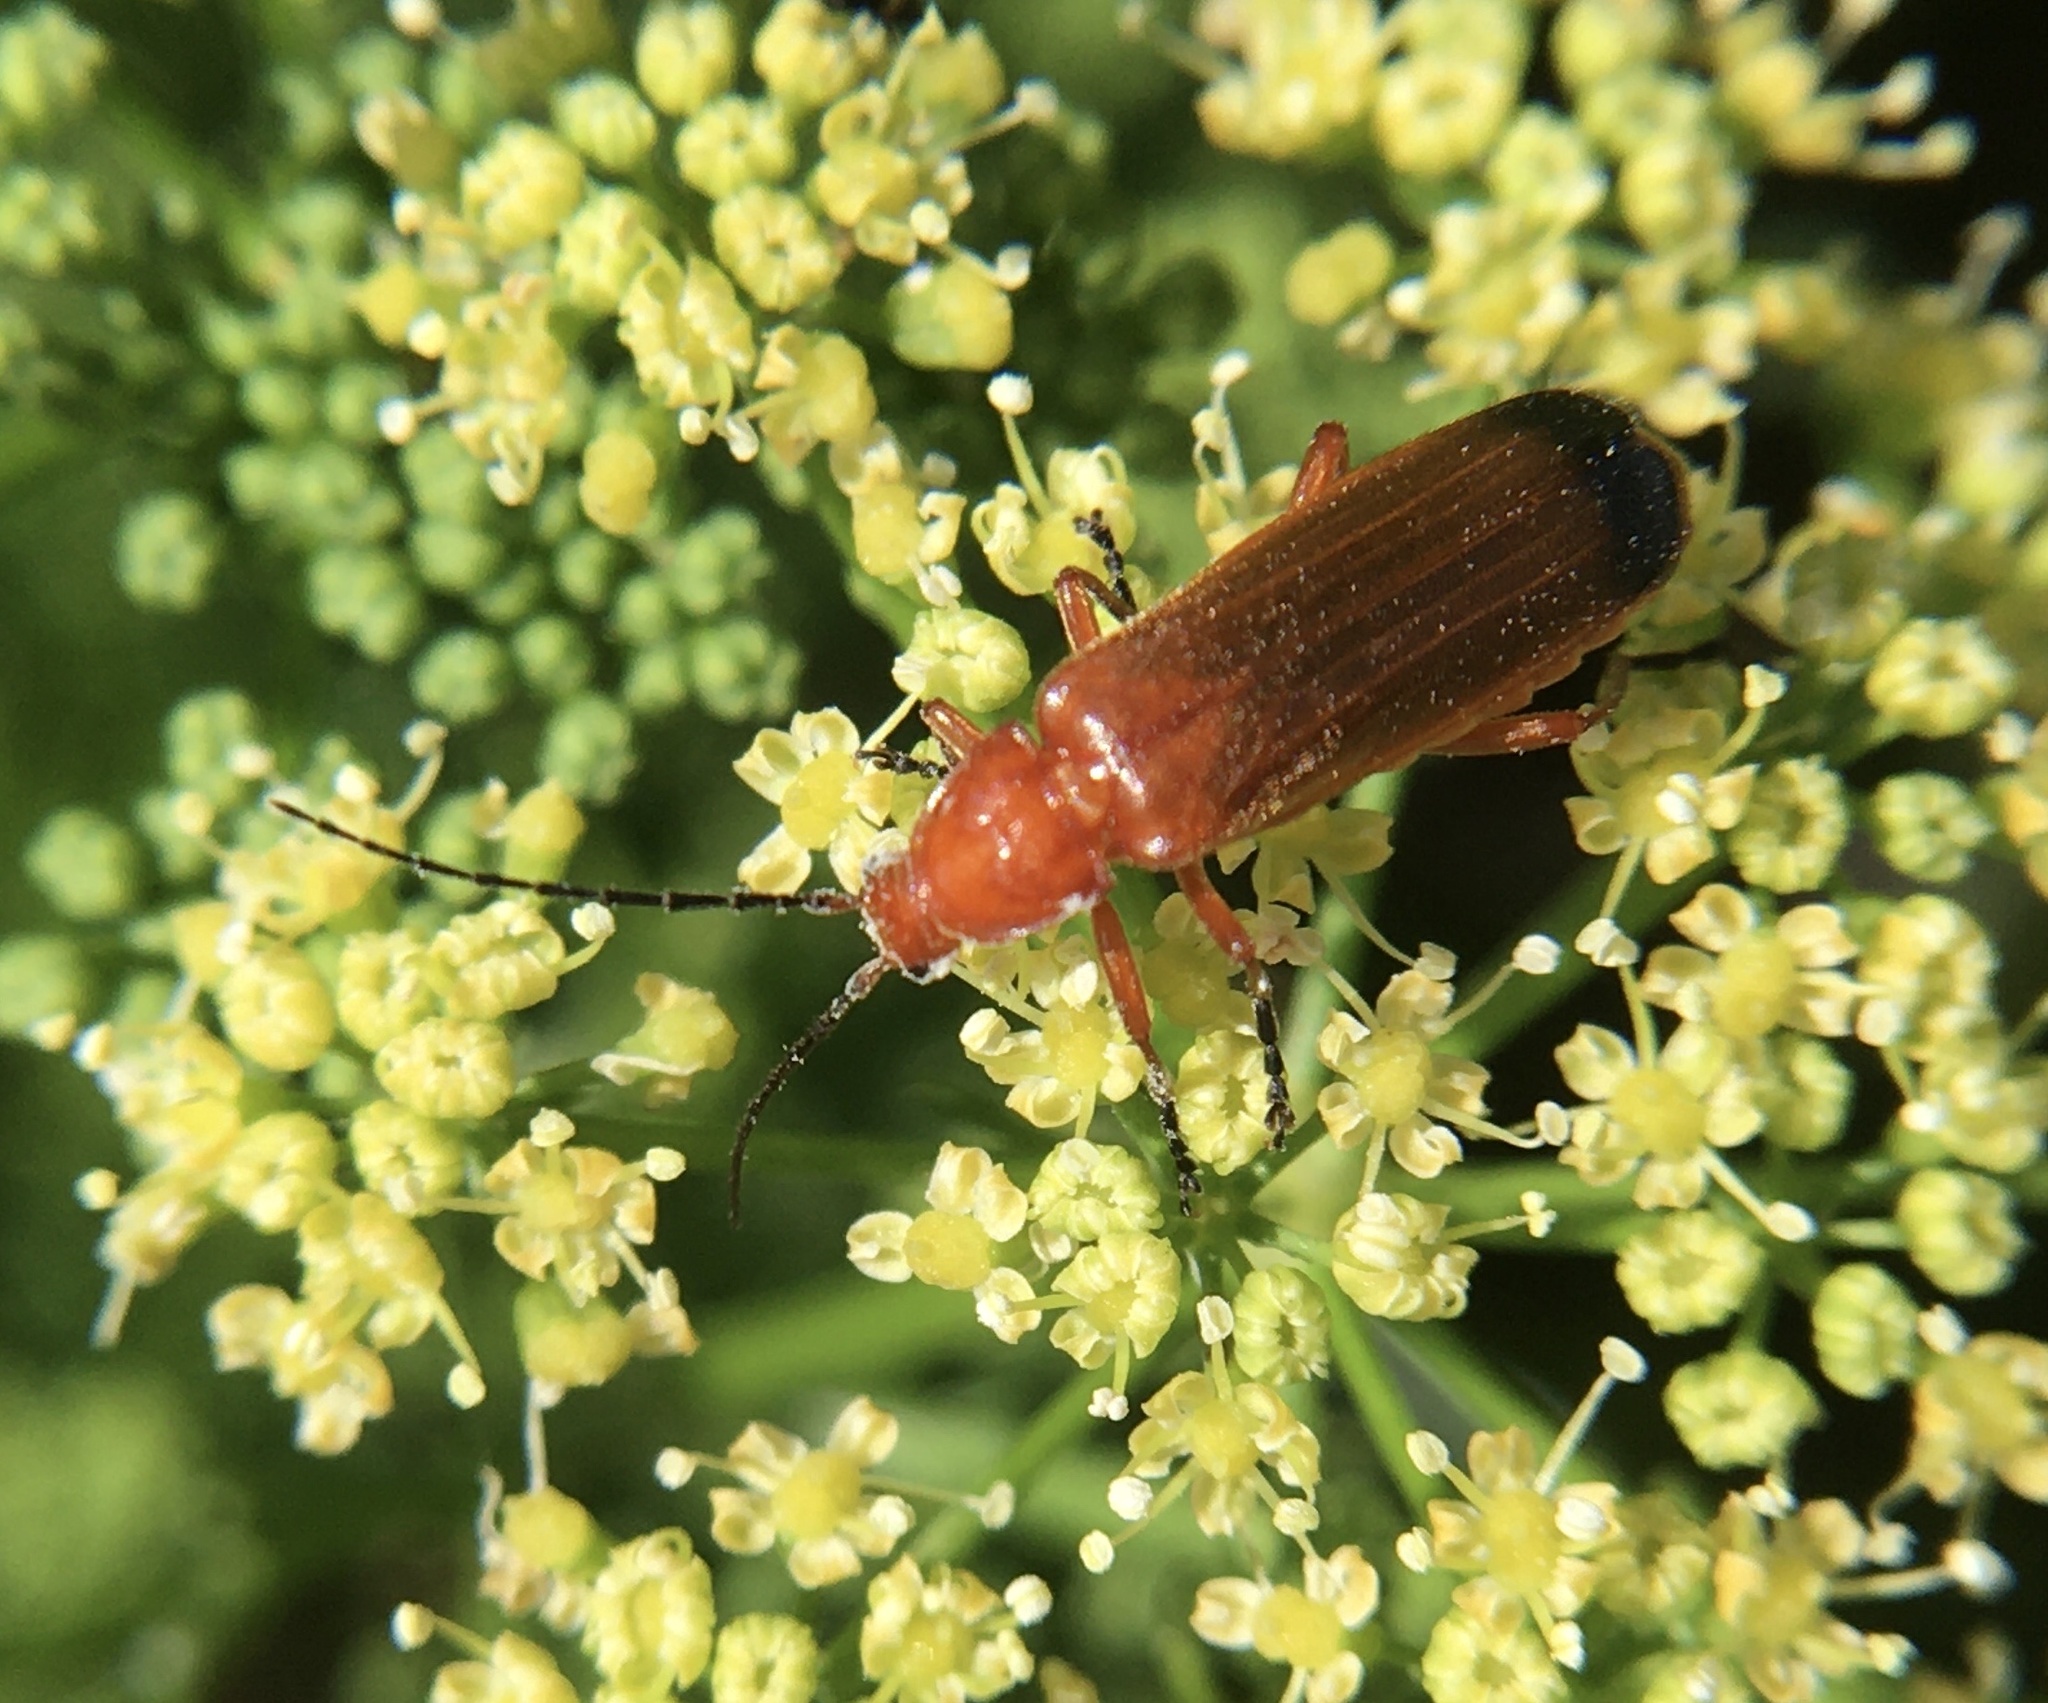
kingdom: Animalia
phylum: Arthropoda
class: Insecta
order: Coleoptera
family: Cantharidae
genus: Rhagonycha
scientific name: Rhagonycha fulva
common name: Common red soldier beetle
